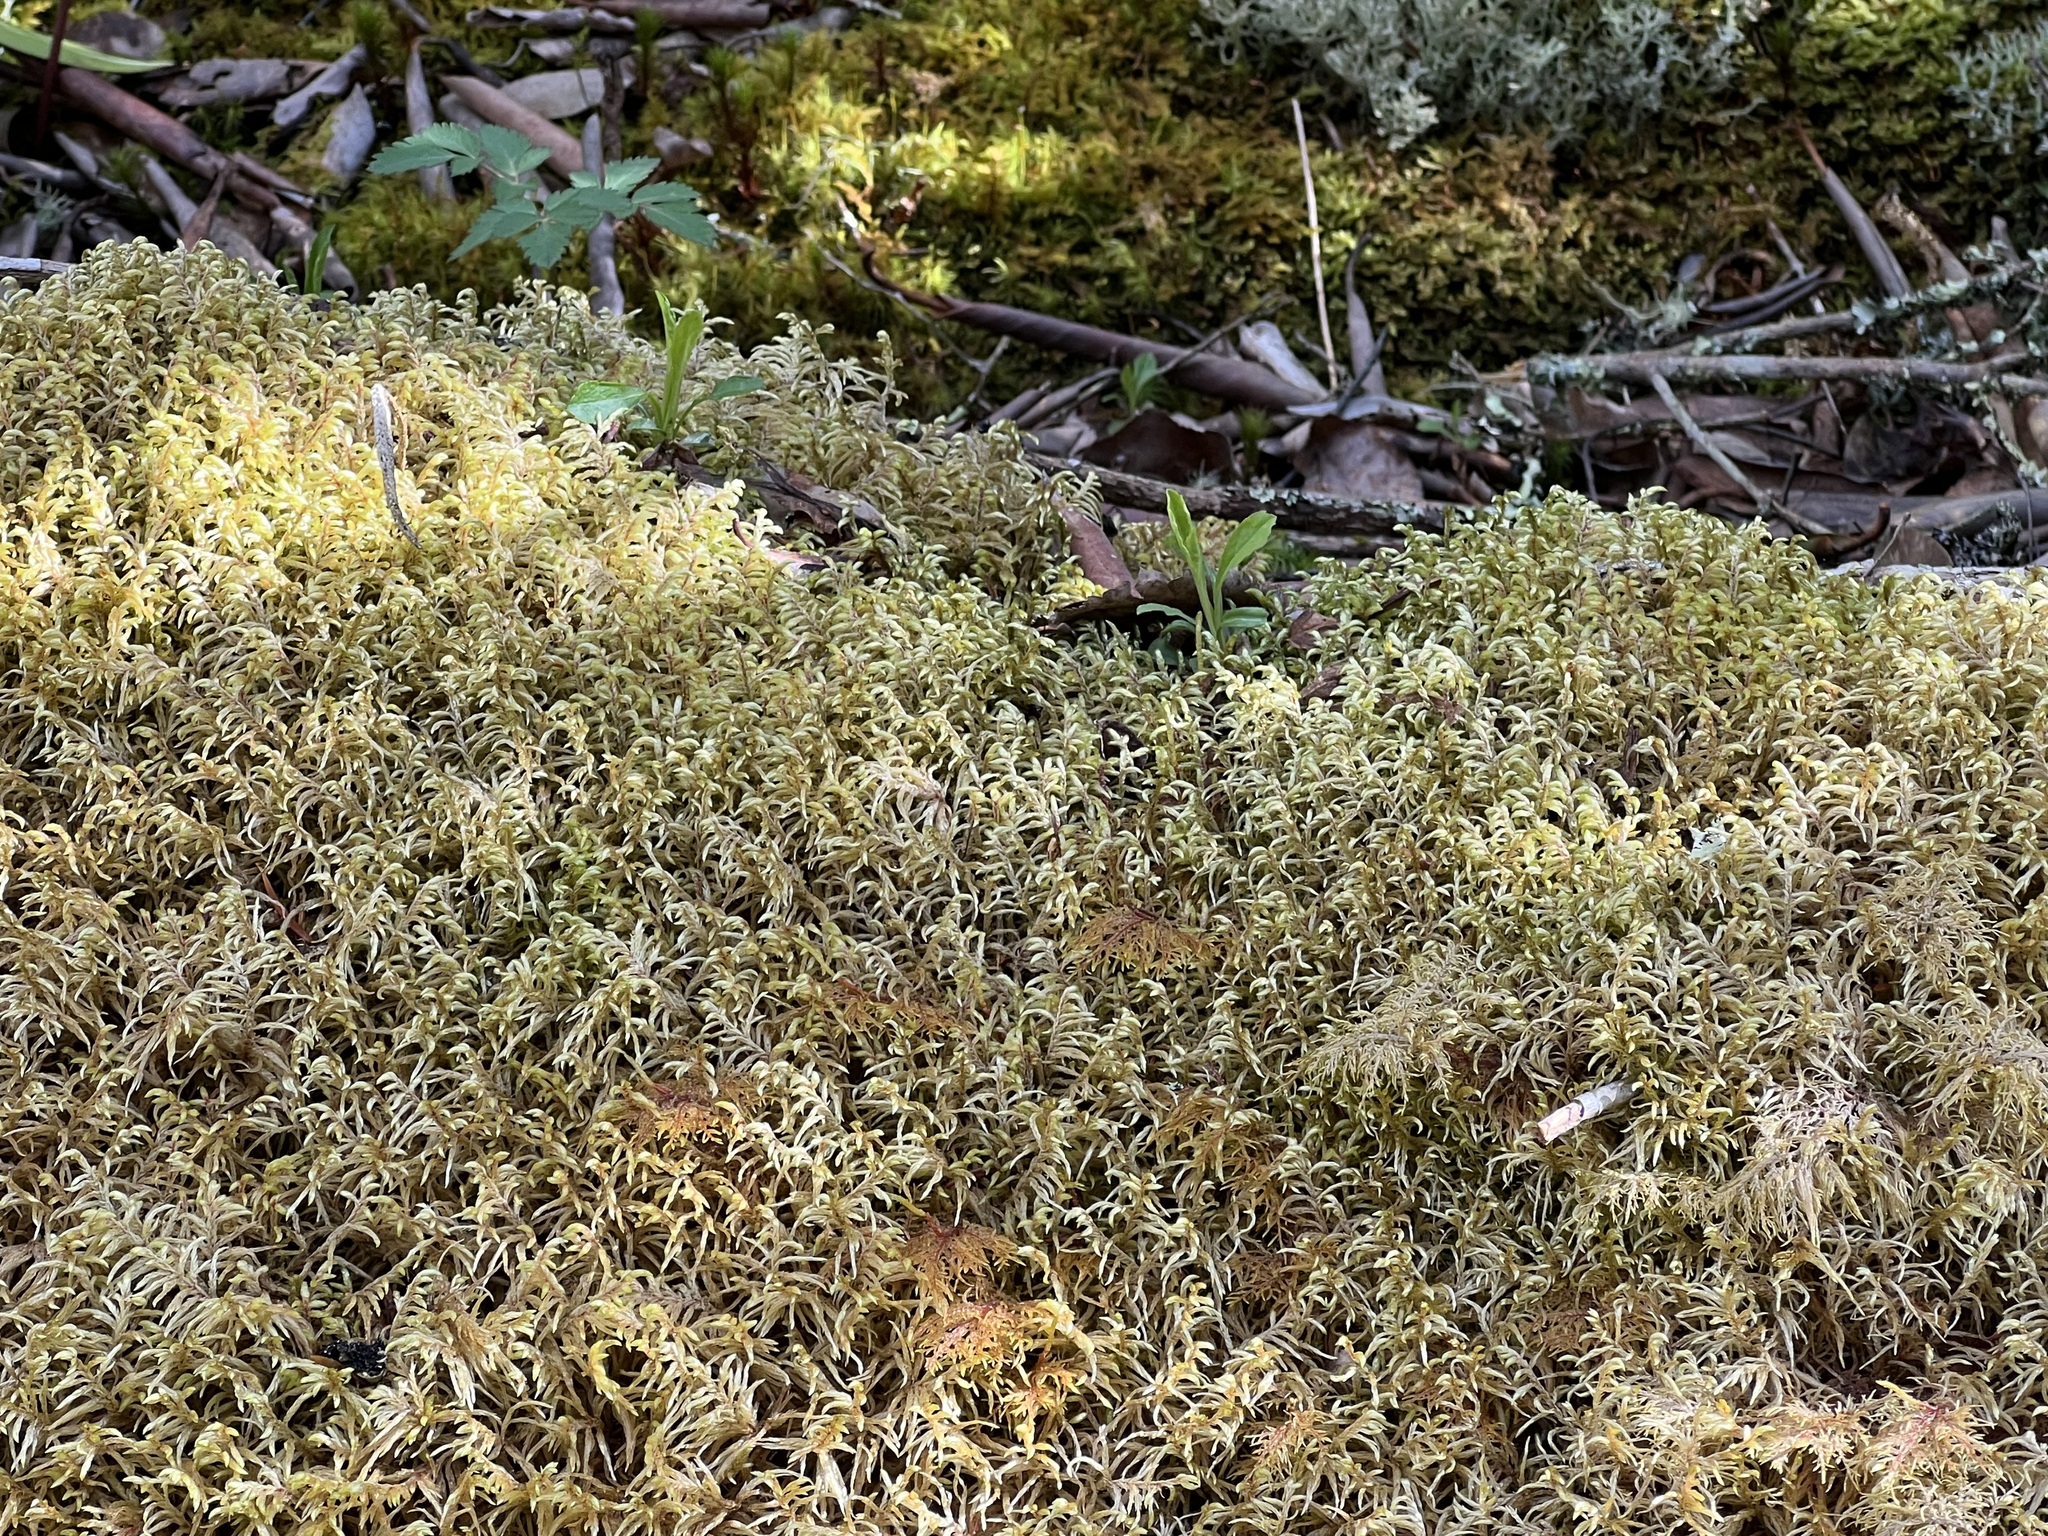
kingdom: Plantae
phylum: Bryophyta
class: Bryopsida
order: Hypnales
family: Hylocomiaceae
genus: Pleurozium
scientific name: Pleurozium schreberi
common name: Red-stemmed feather moss
